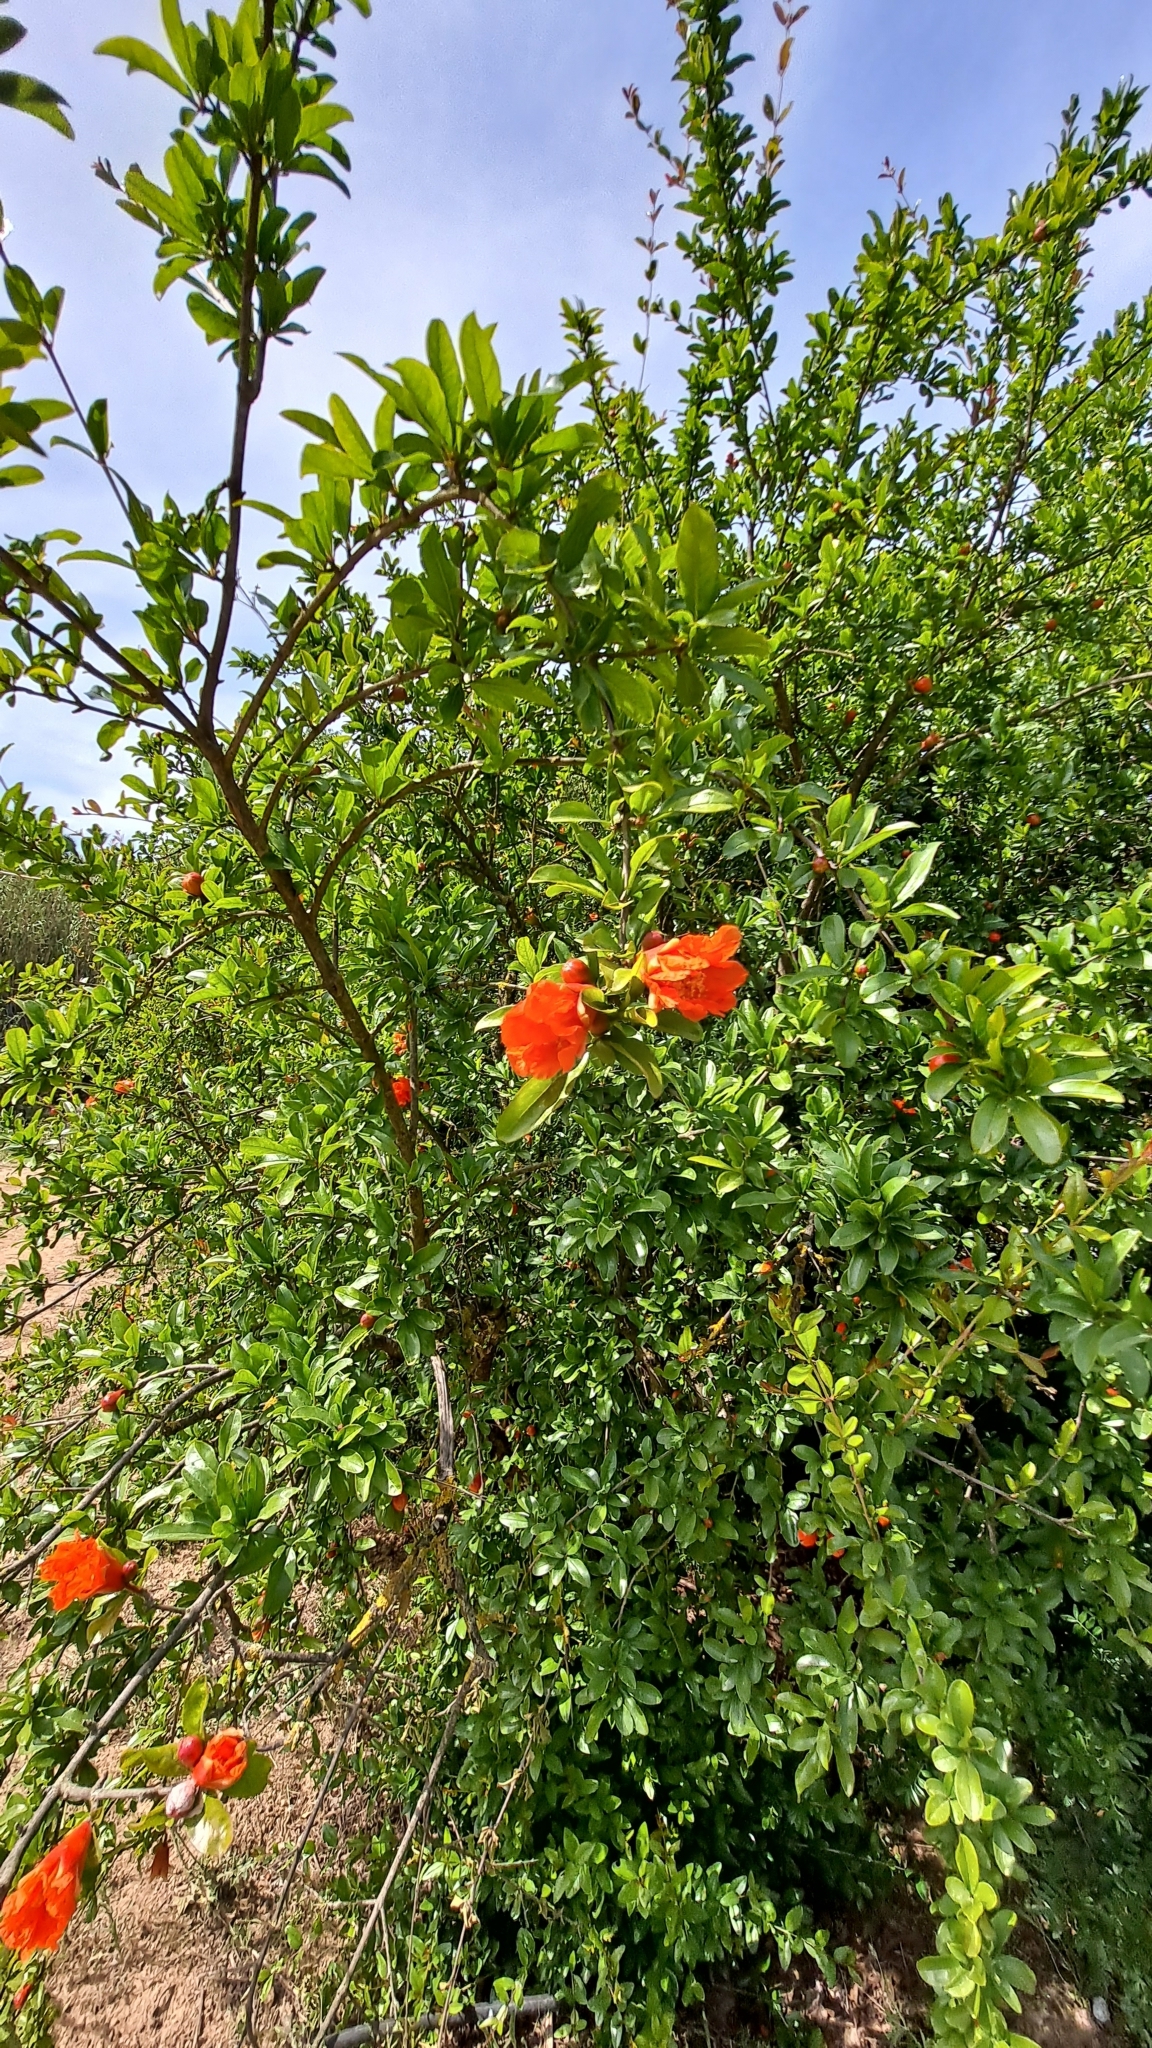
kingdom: Plantae
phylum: Tracheophyta
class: Magnoliopsida
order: Myrtales
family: Lythraceae
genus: Punica
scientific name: Punica granatum
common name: Pomegranate
